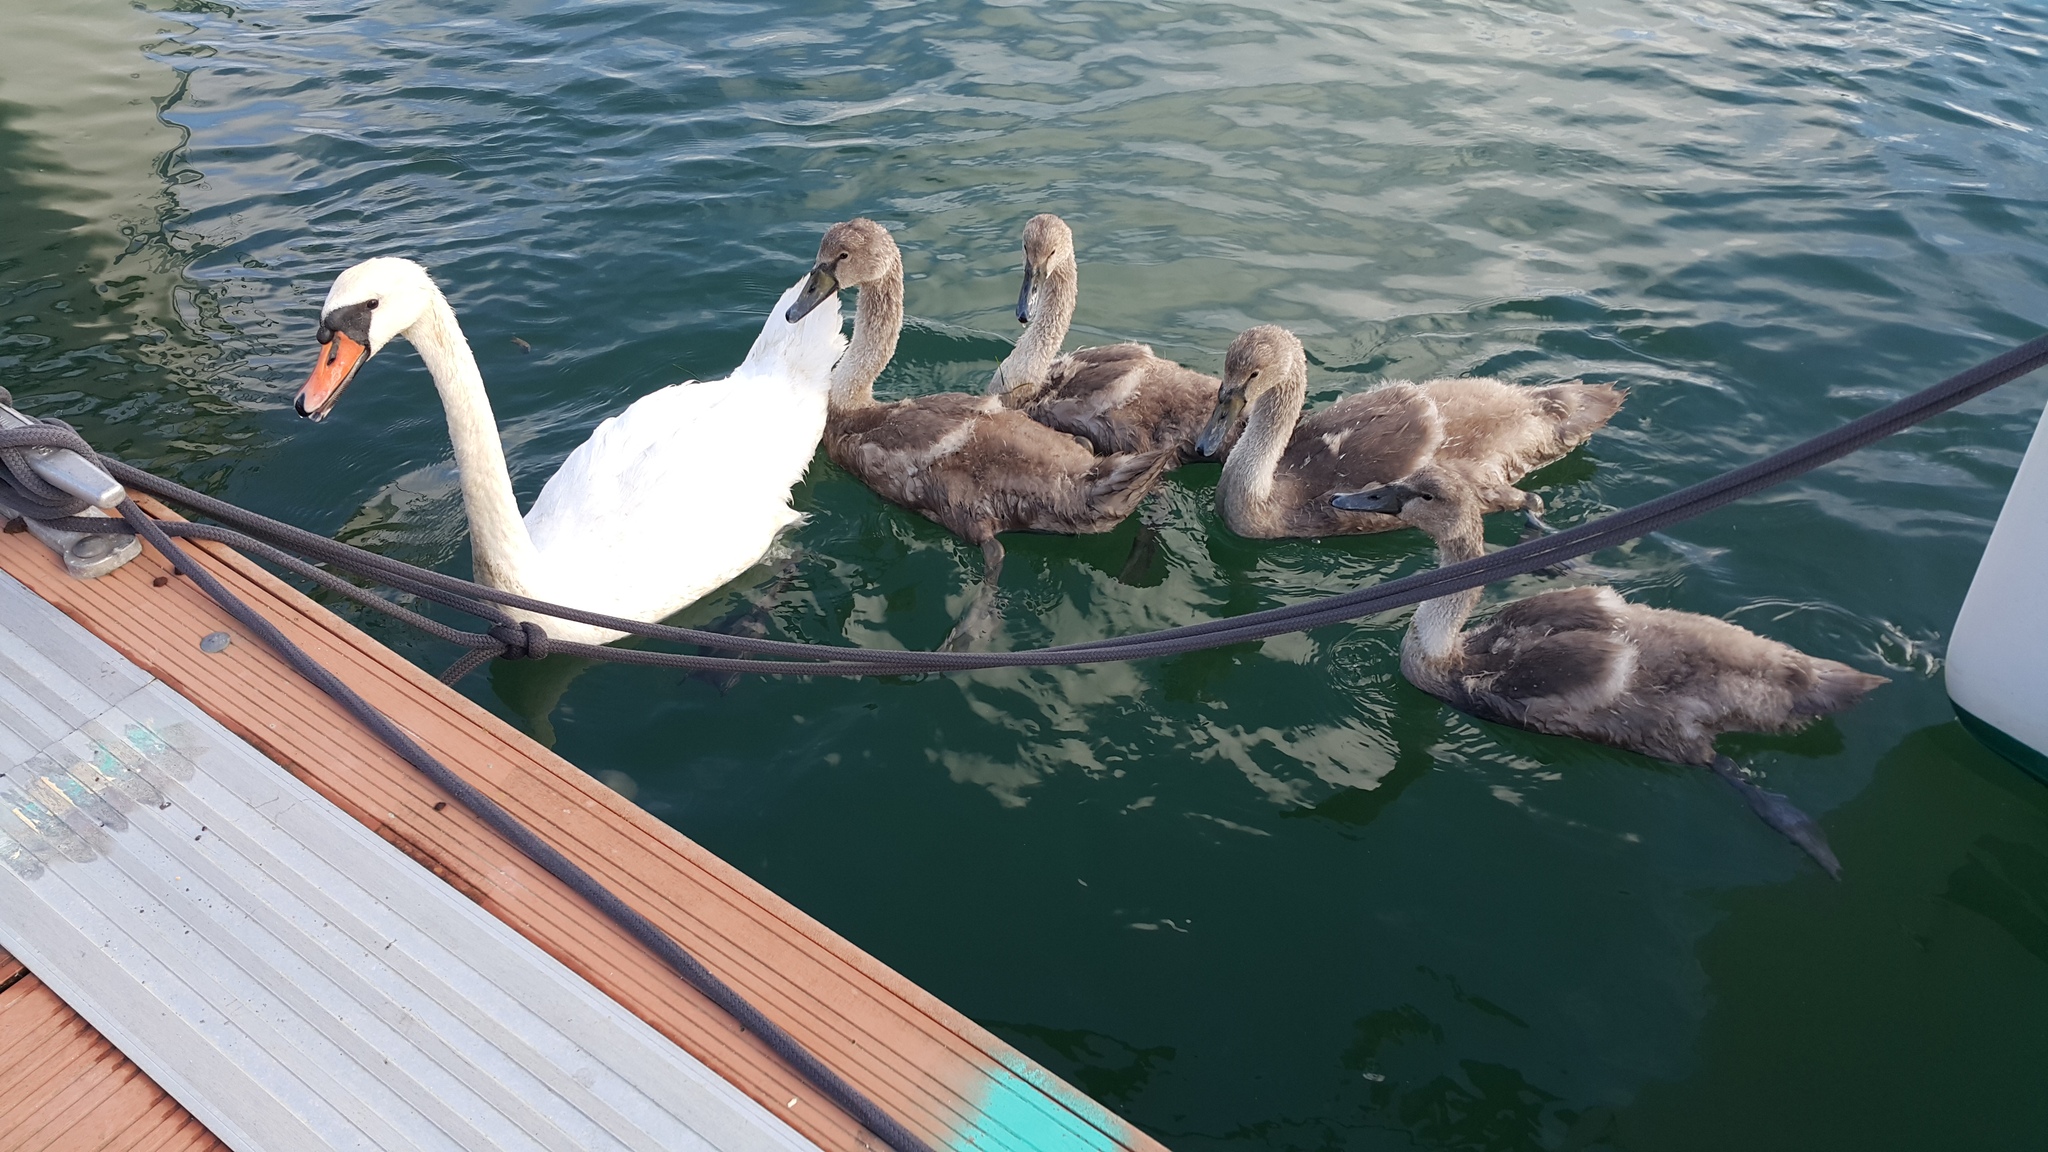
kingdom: Animalia
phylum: Chordata
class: Aves
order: Anseriformes
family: Anatidae
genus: Cygnus
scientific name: Cygnus olor
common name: Mute swan
